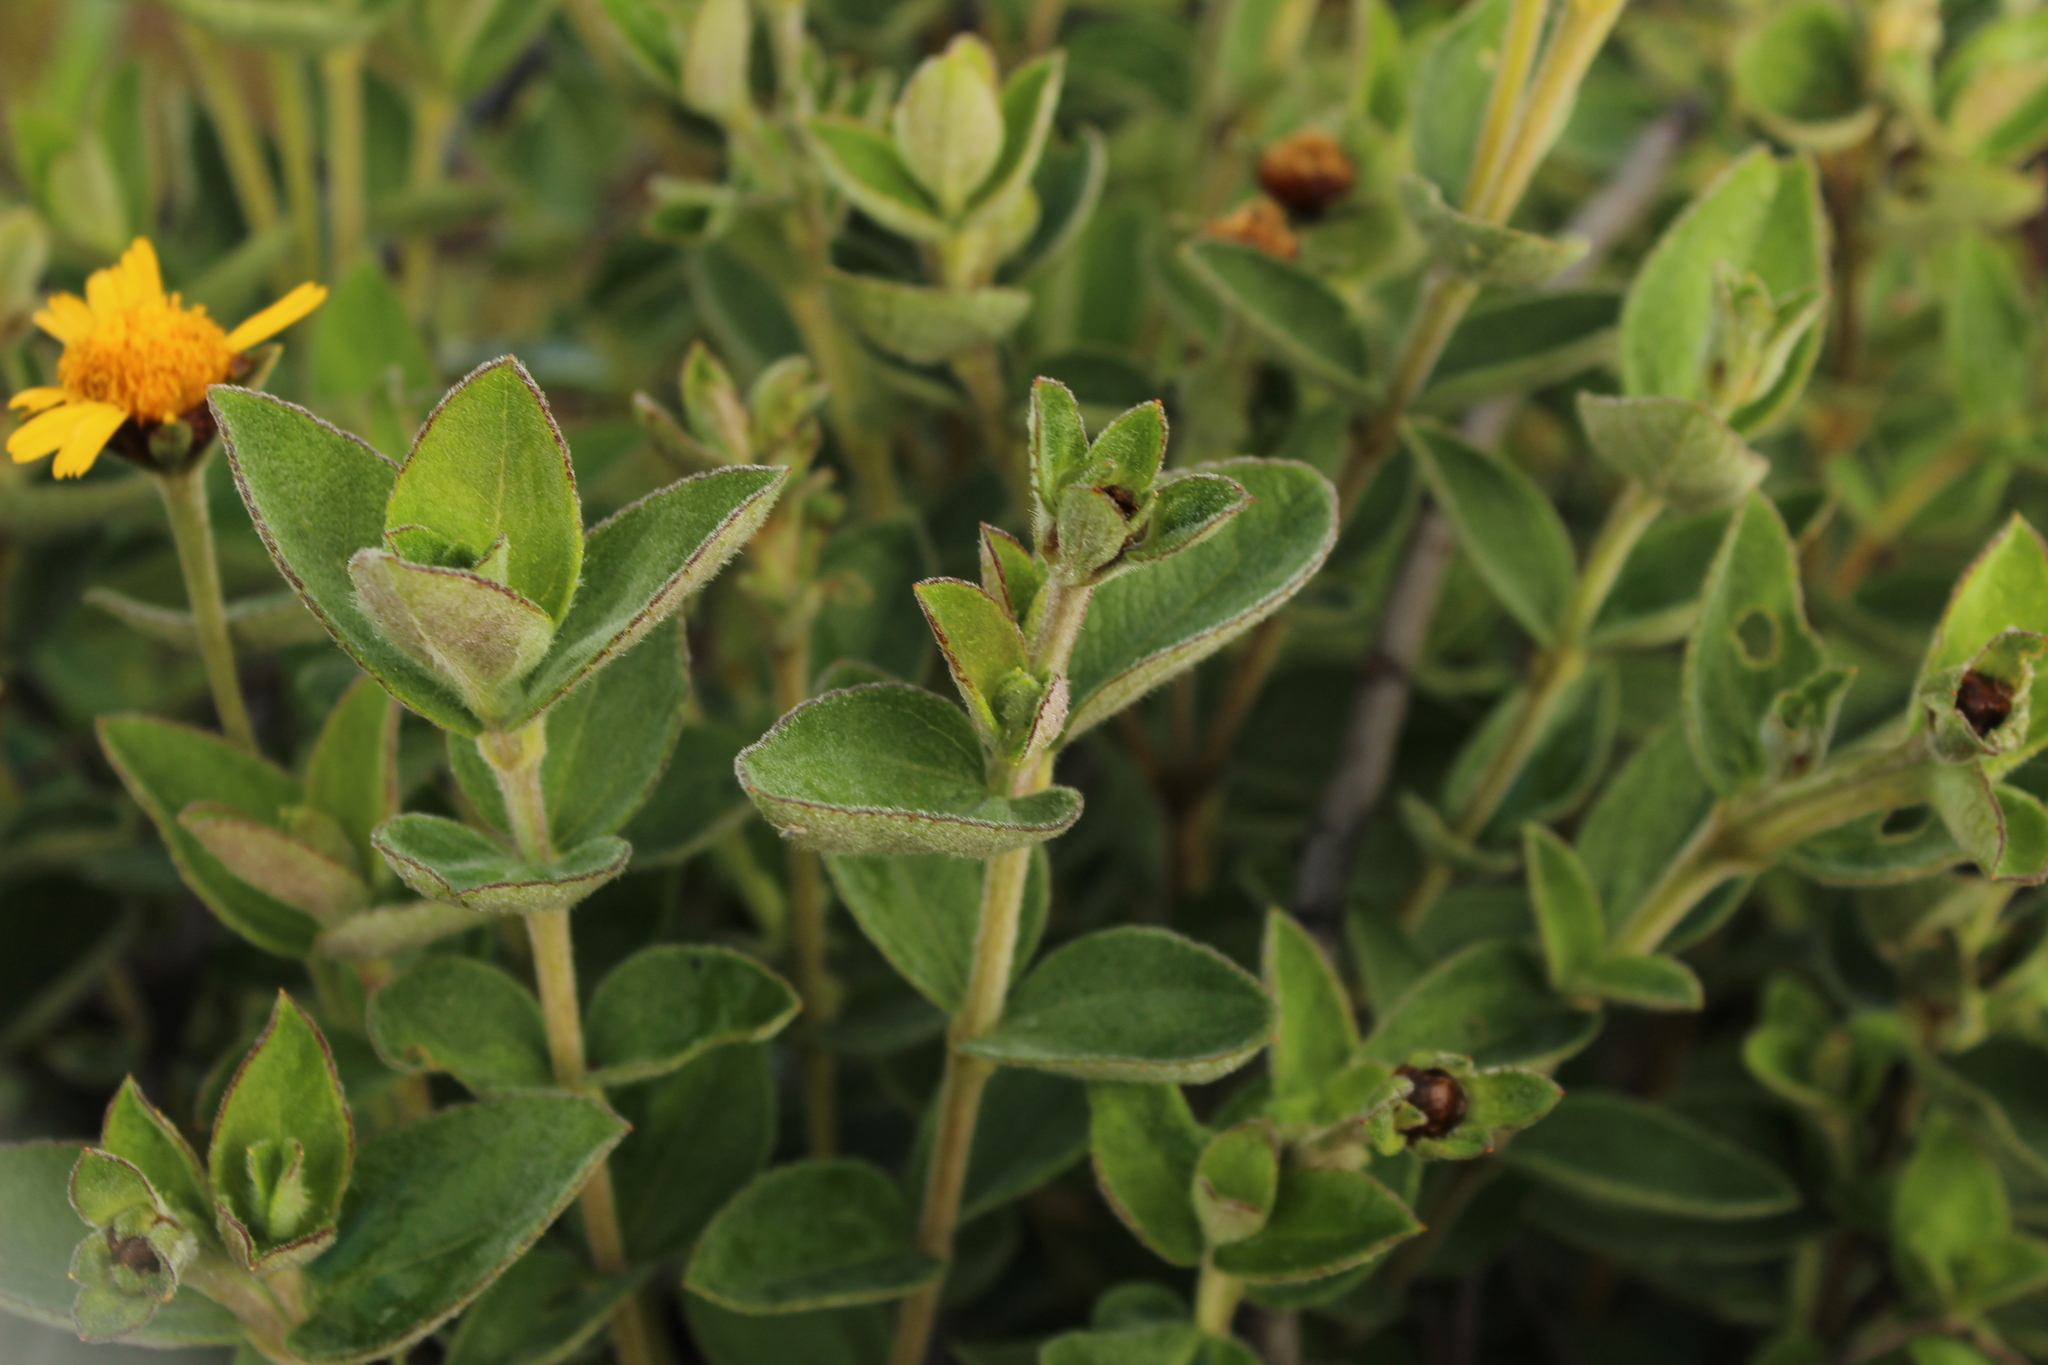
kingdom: Plantae
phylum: Tracheophyta
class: Magnoliopsida
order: Asterales
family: Asteraceae
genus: Calea
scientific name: Calea peruviana
